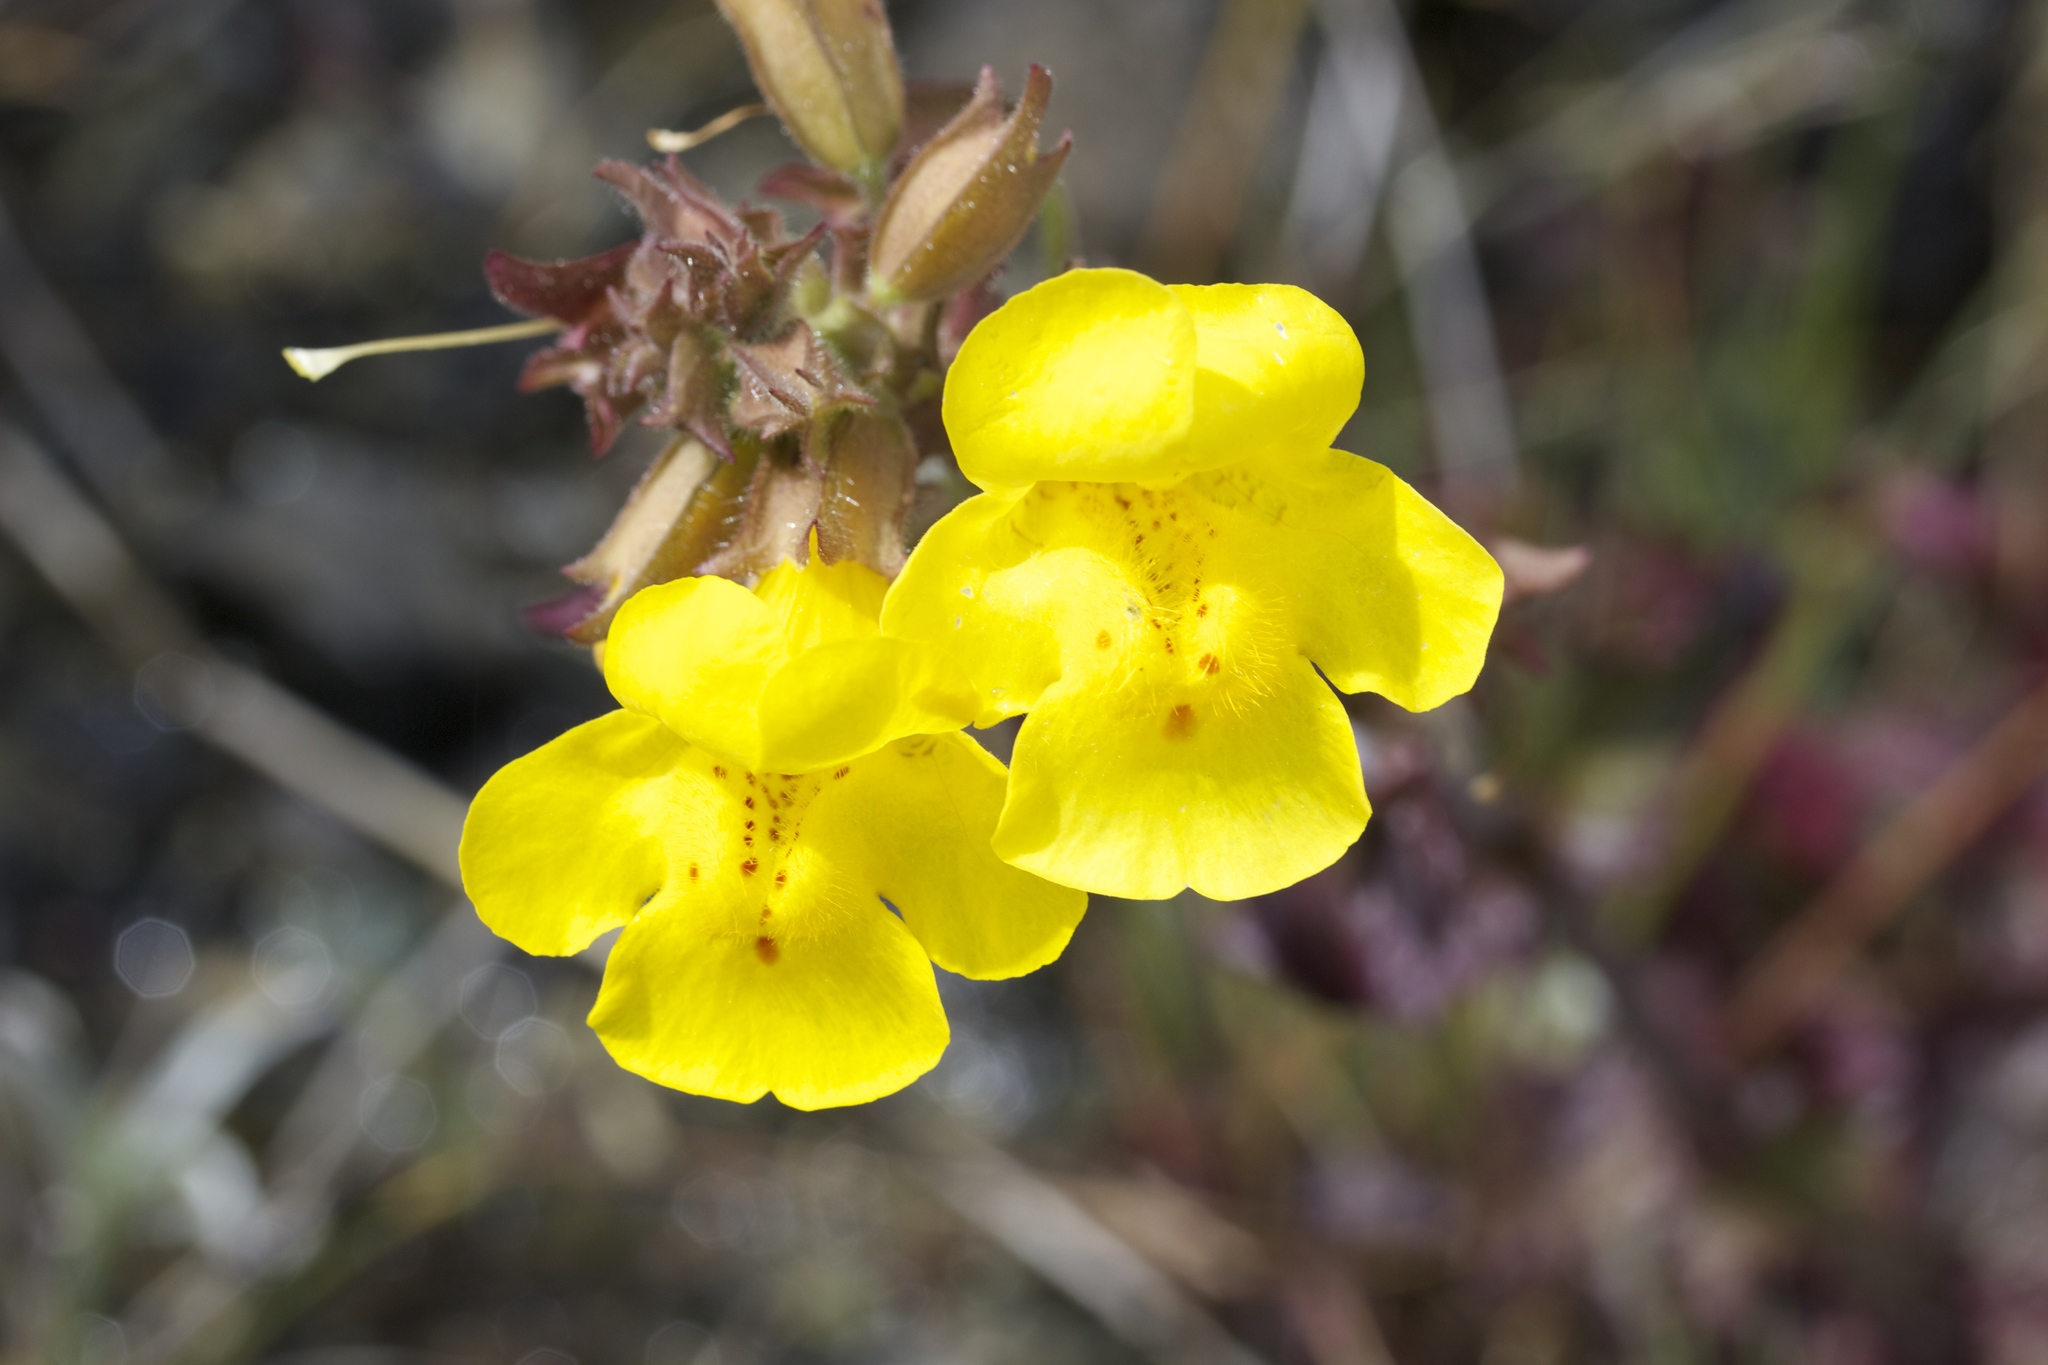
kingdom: Plantae
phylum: Tracheophyta
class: Magnoliopsida
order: Lamiales
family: Phrymaceae
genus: Erythranthe
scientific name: Erythranthe guttata
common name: Monkeyflower
